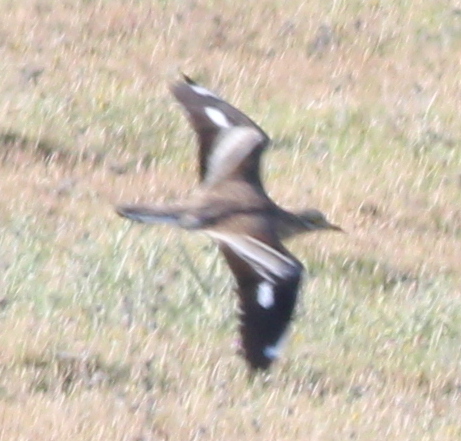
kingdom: Animalia
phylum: Chordata
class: Aves
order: Charadriiformes
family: Burhinidae
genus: Burhinus
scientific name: Burhinus oedicnemus
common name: Eurasian stone-curlew
